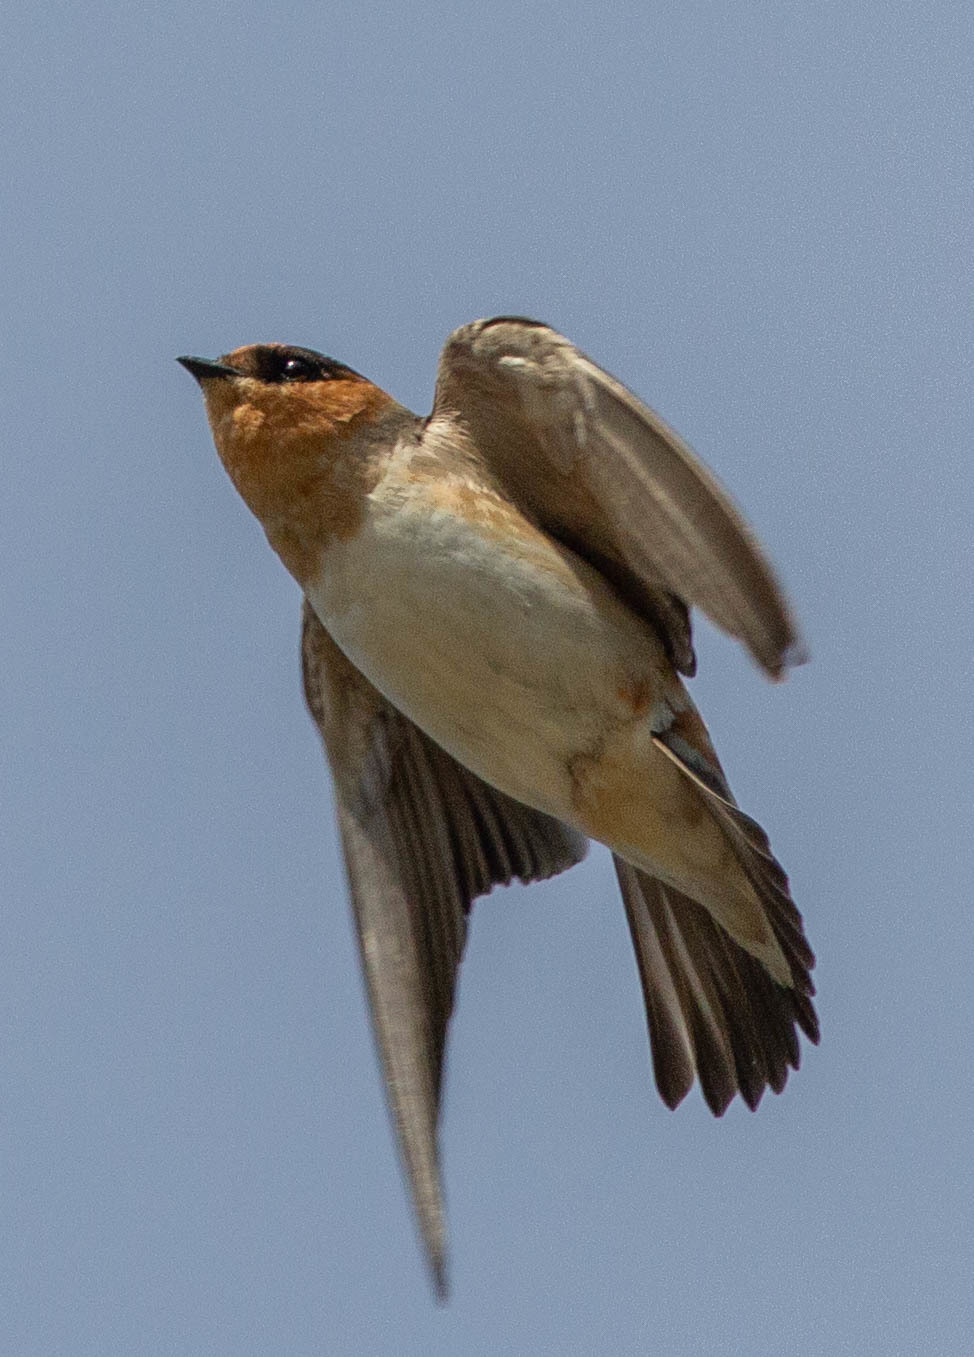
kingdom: Animalia
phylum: Chordata
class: Aves
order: Passeriformes
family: Hirundinidae
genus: Petrochelidon
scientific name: Petrochelidon fulva
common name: Cave swallow
